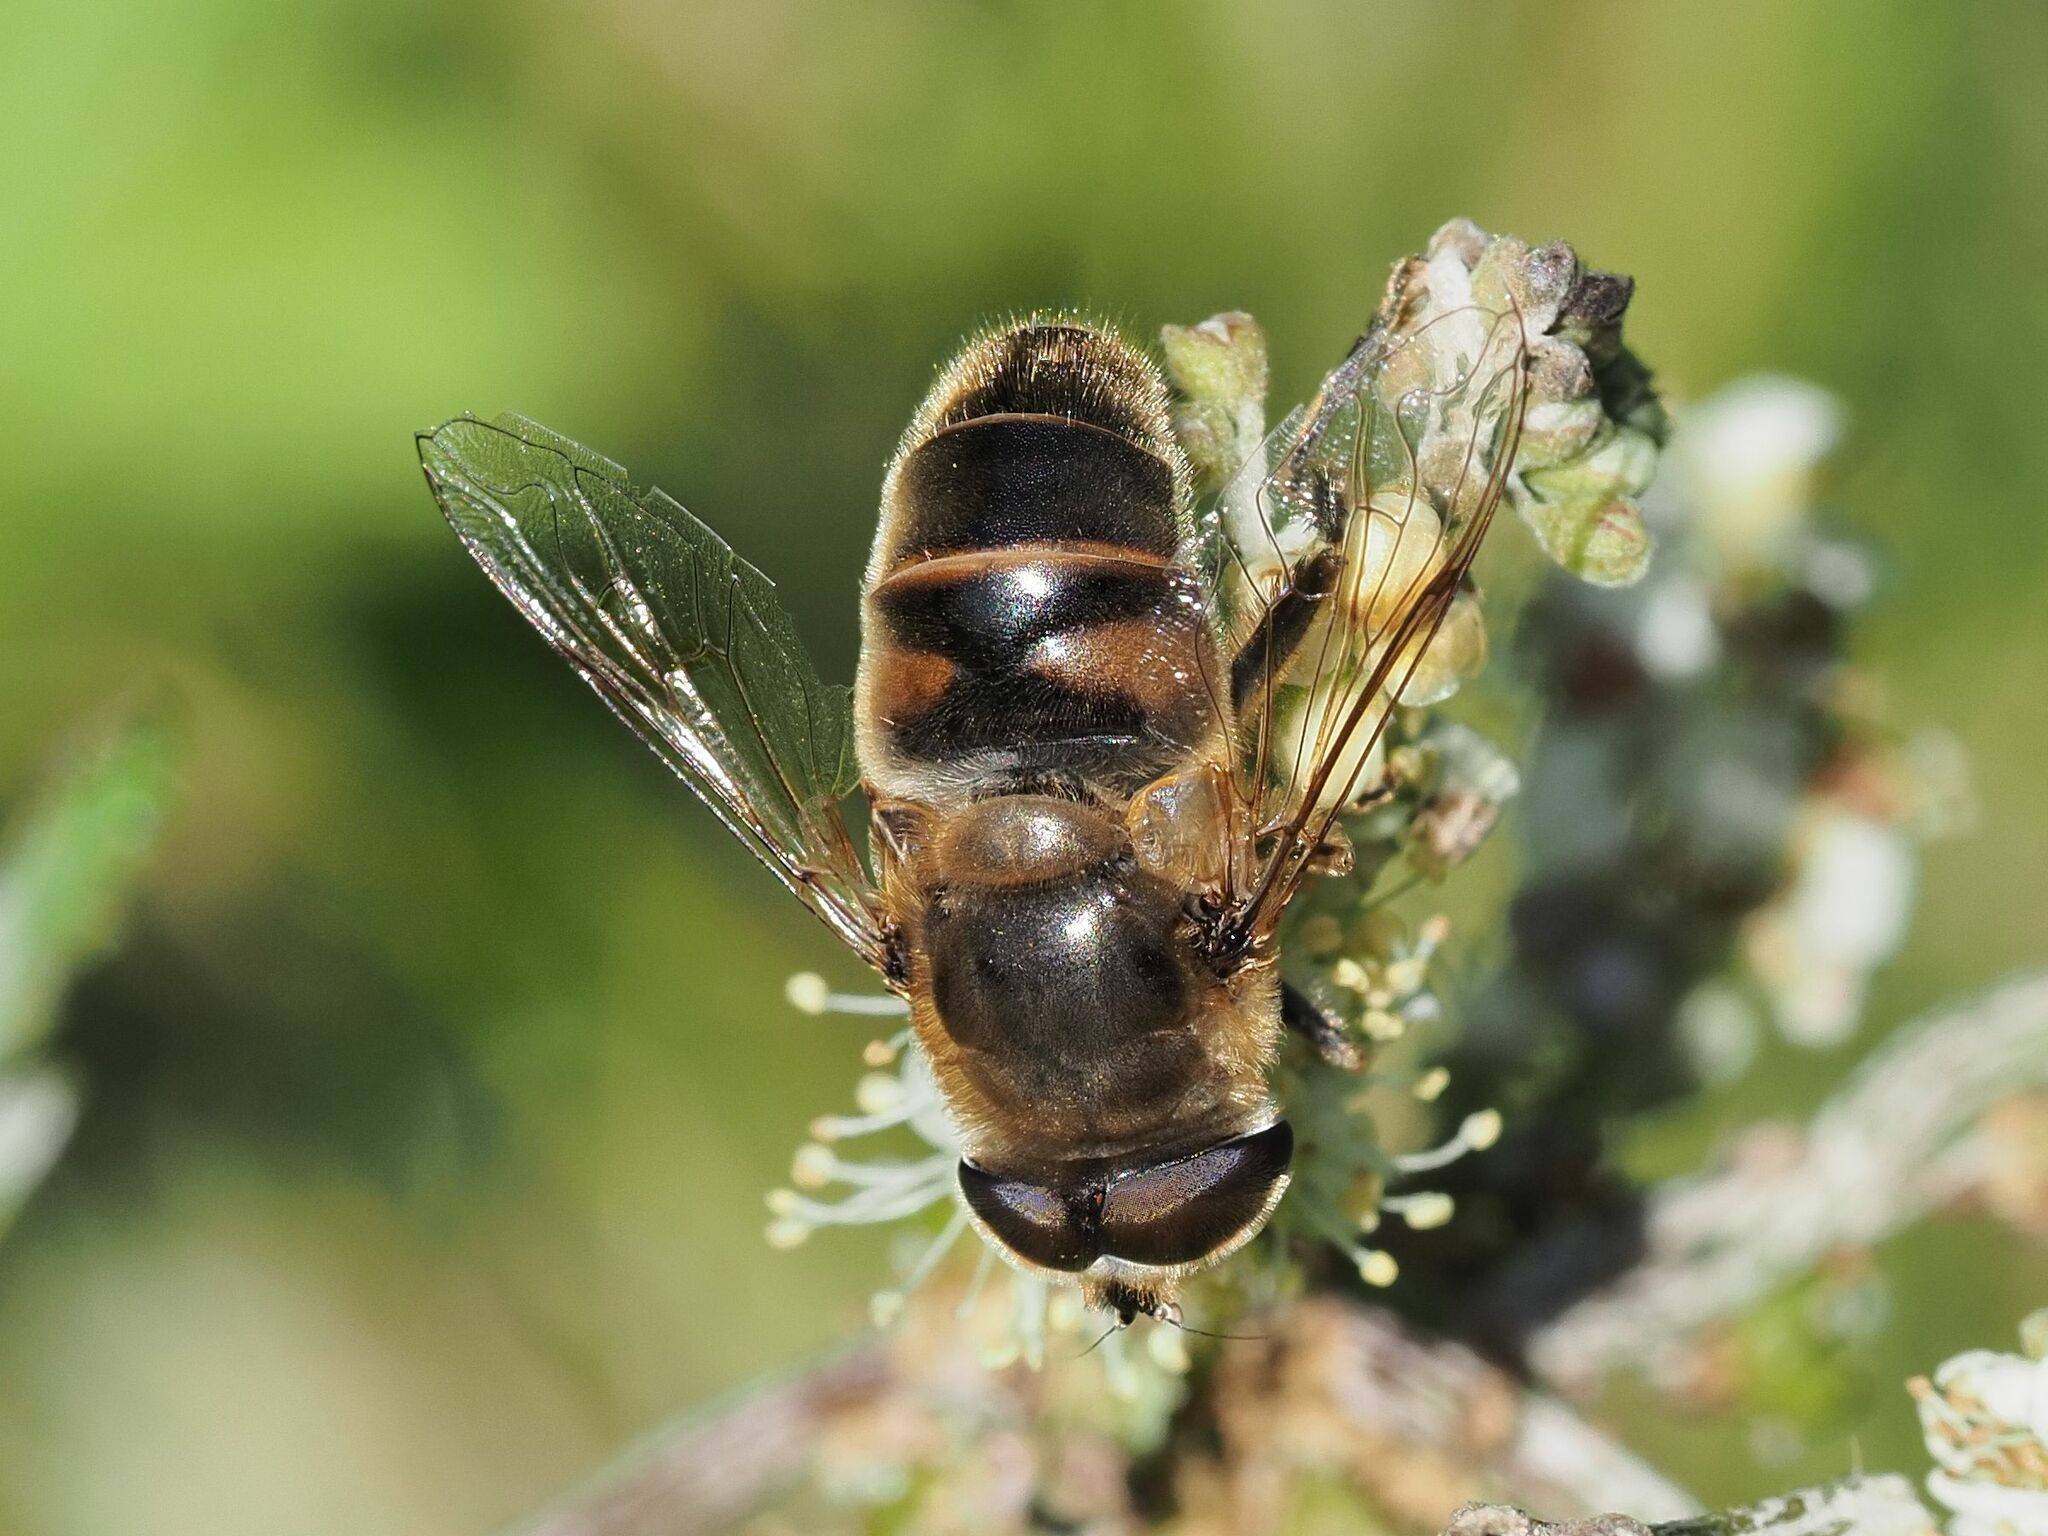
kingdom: Animalia
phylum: Arthropoda
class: Insecta
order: Diptera
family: Syrphidae
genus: Eristalis
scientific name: Eristalis tenax
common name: Drone fly
